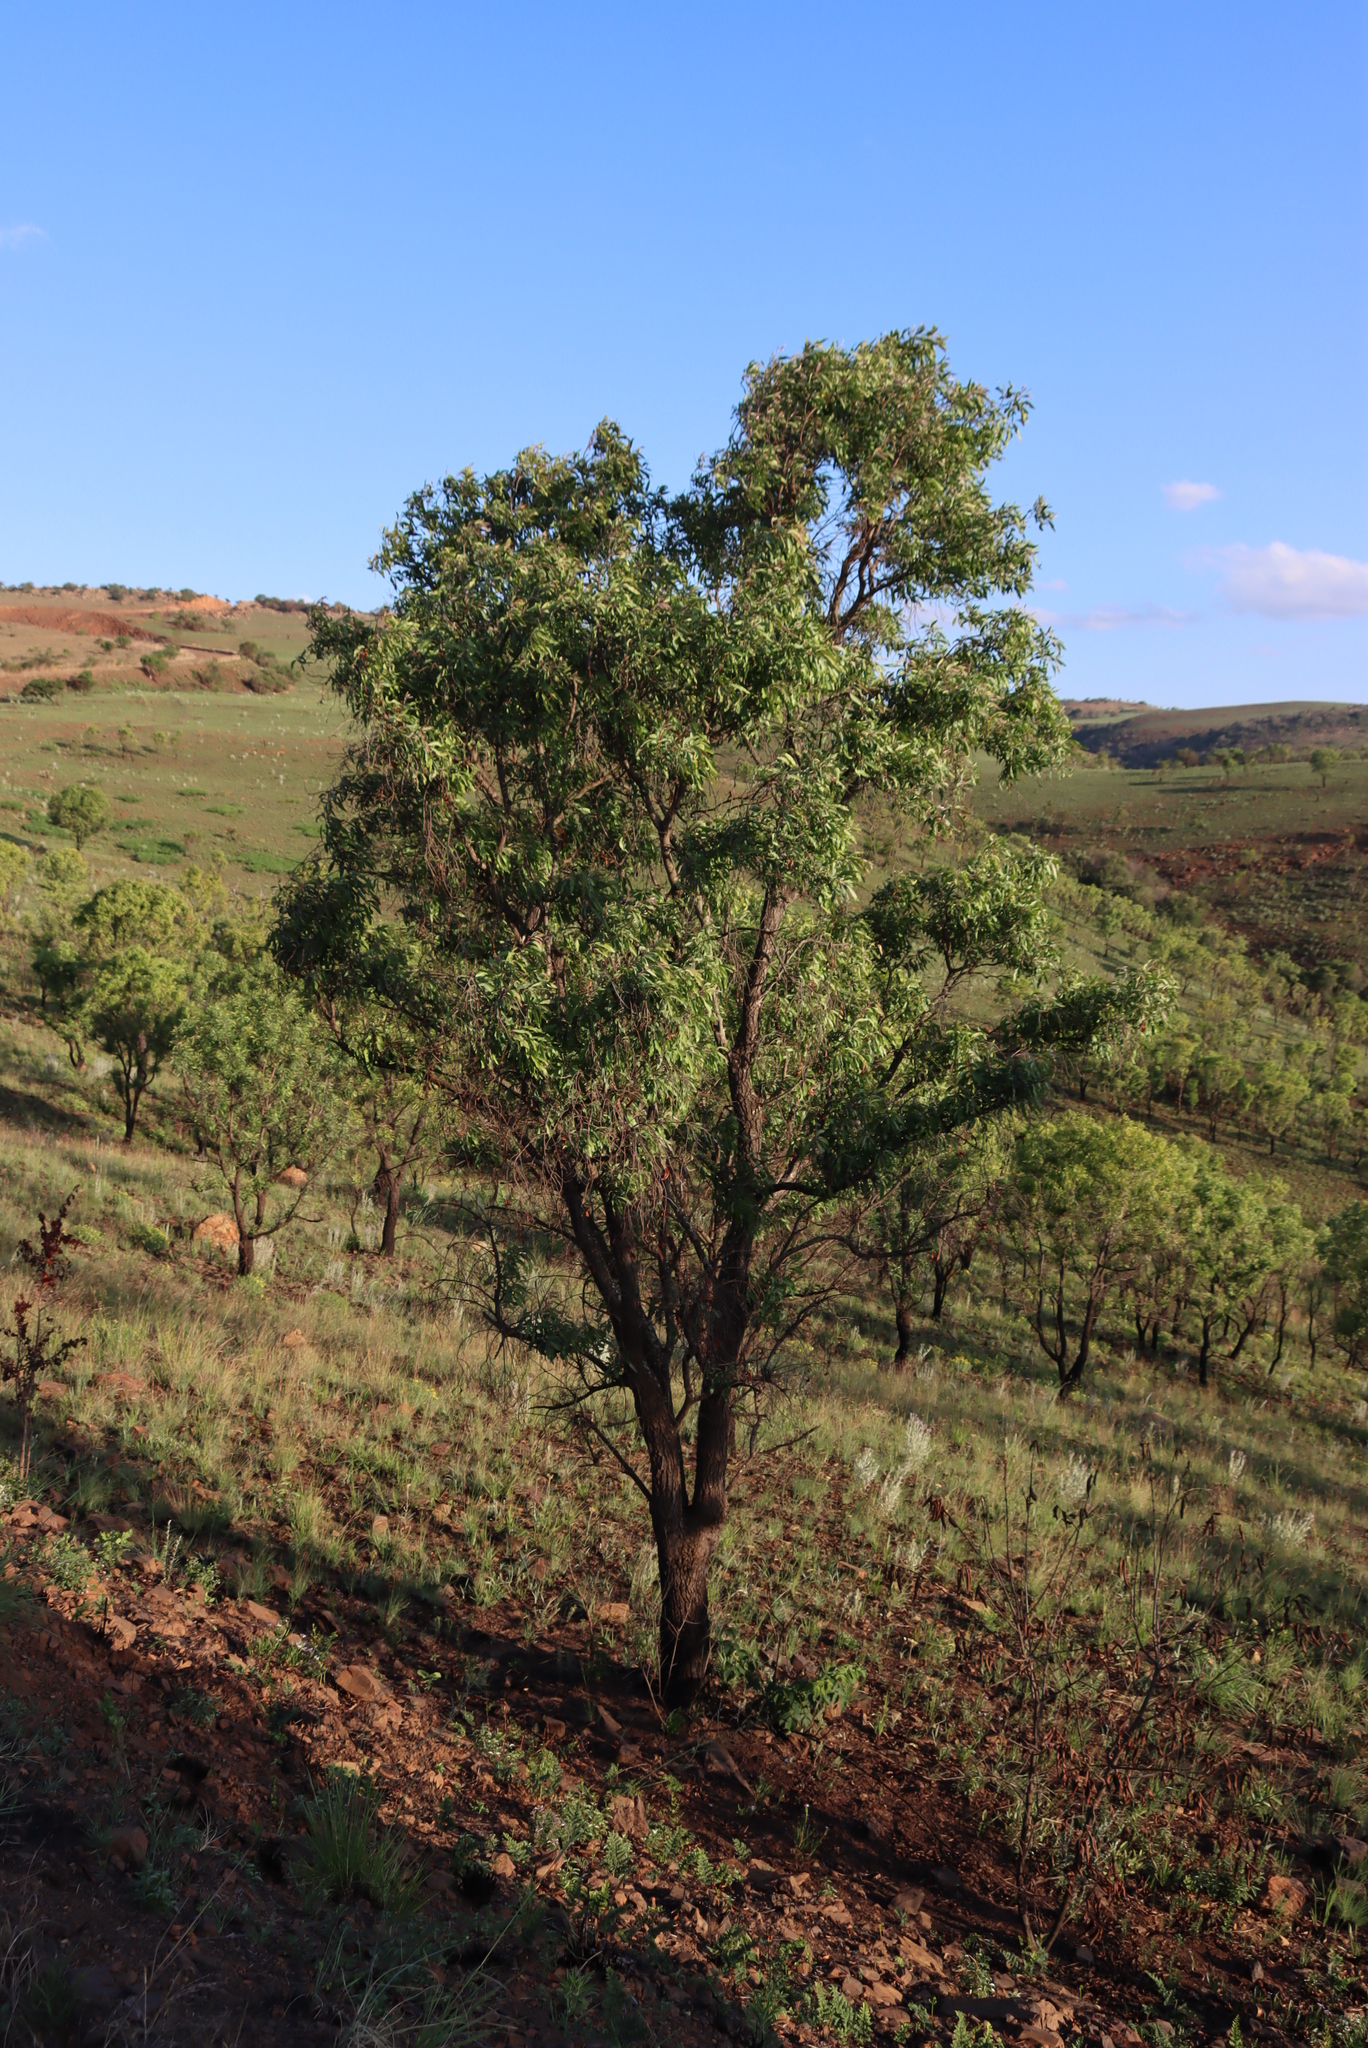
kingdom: Plantae
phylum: Tracheophyta
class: Magnoliopsida
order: Proteales
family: Proteaceae
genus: Faurea
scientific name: Faurea saligna
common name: African bean
